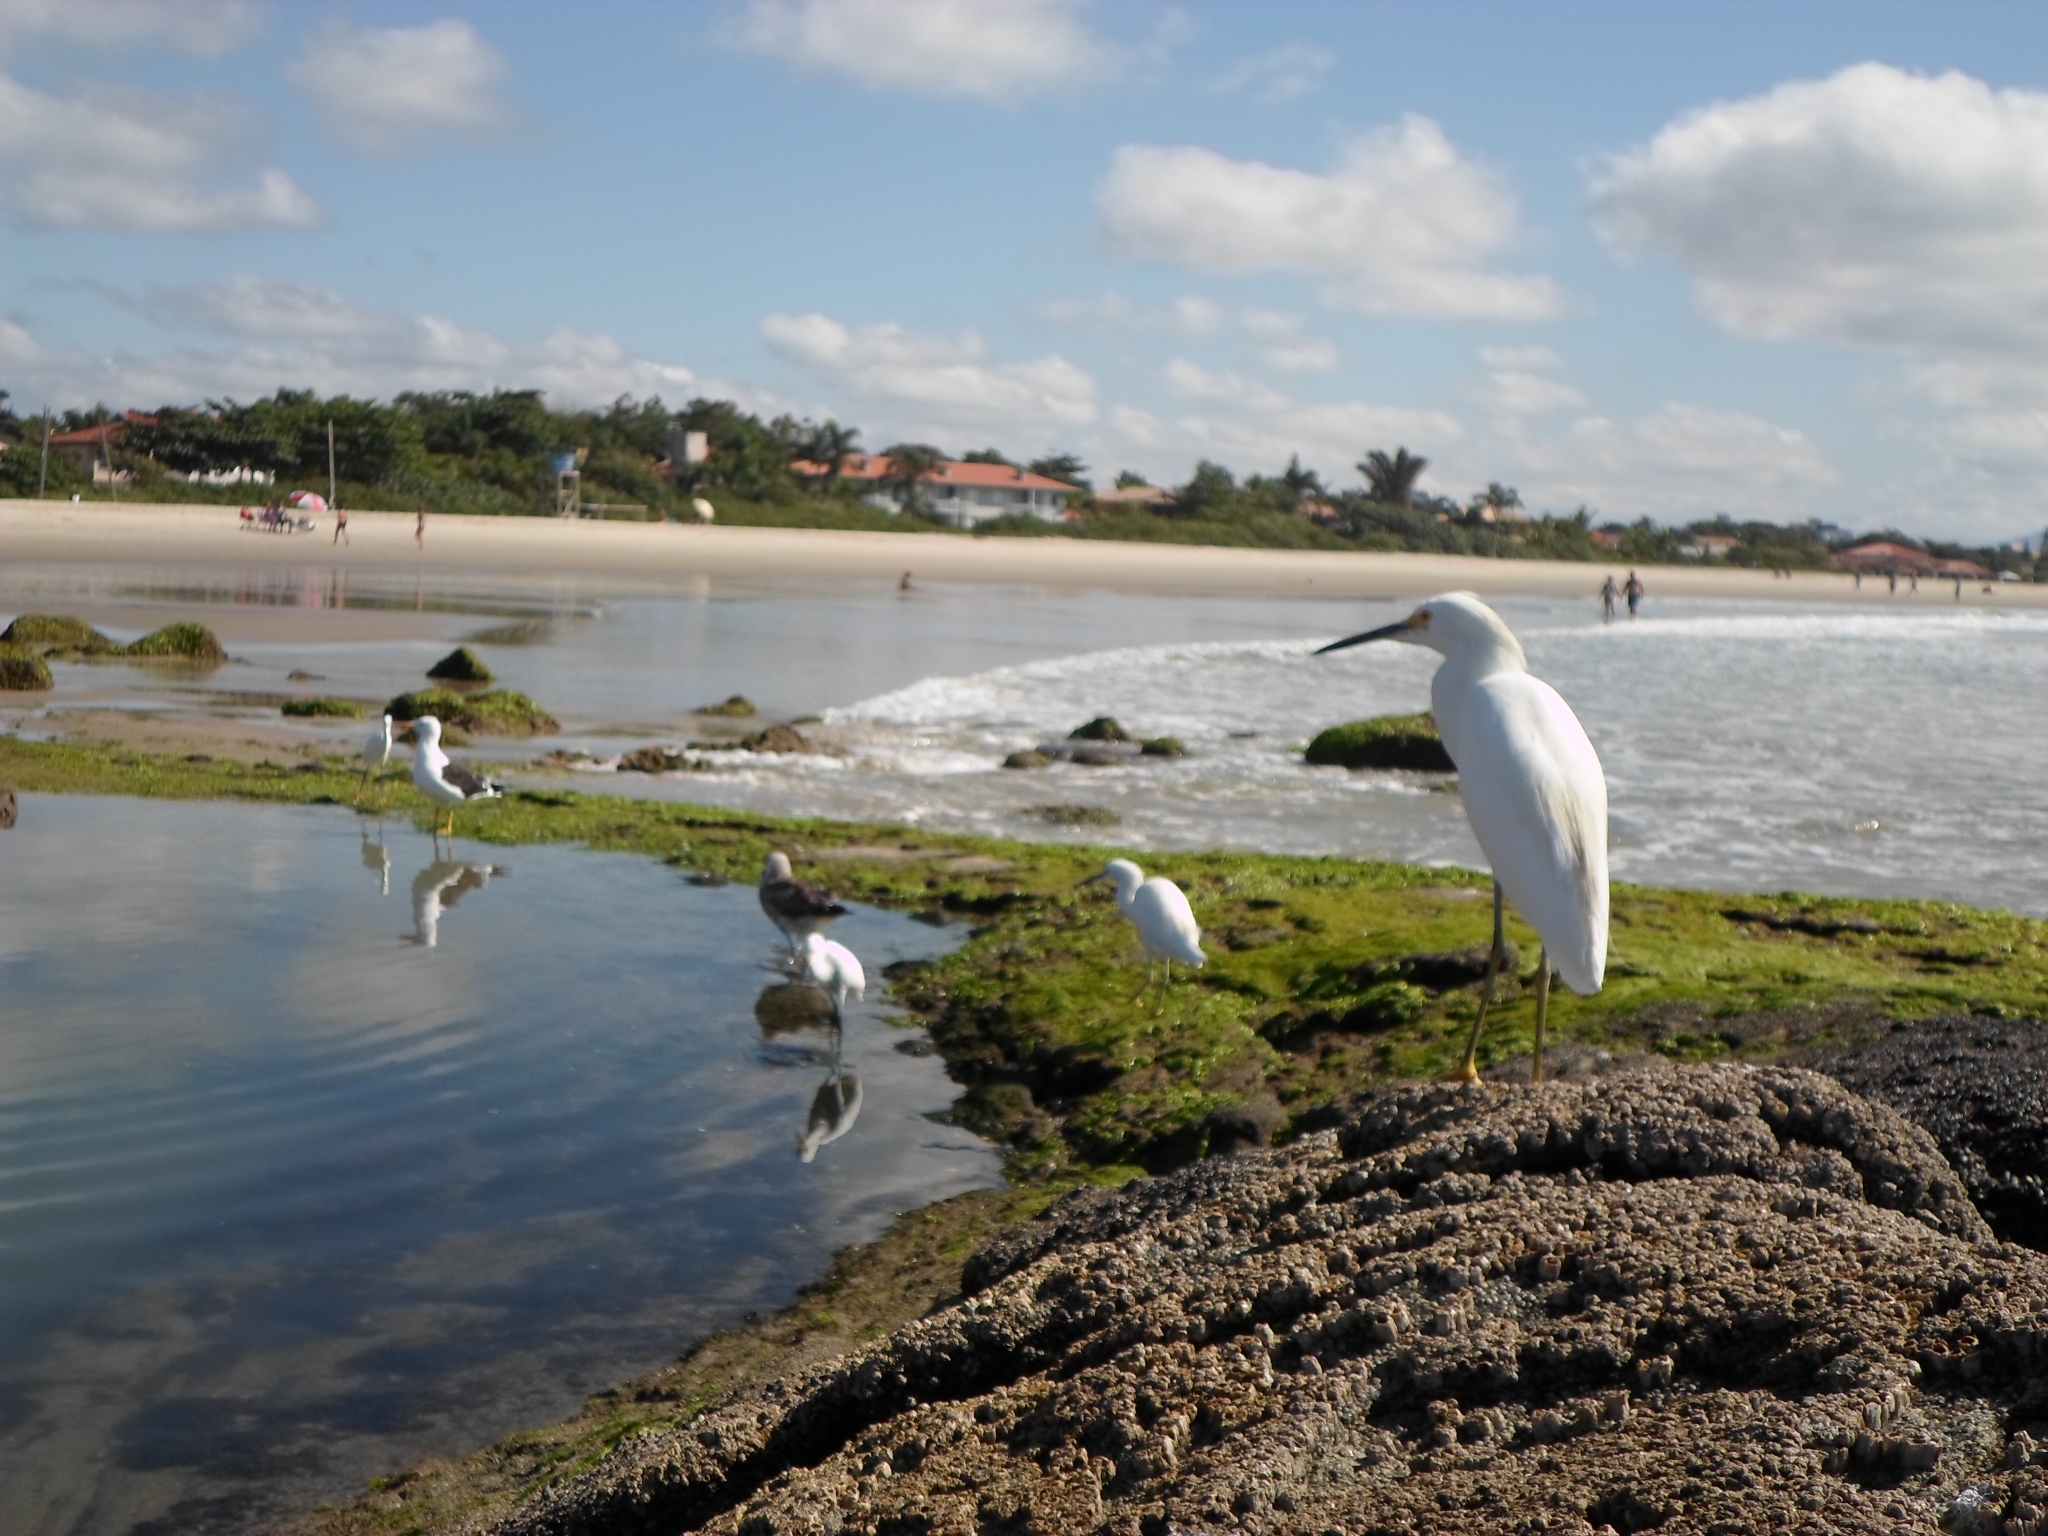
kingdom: Animalia
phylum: Chordata
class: Aves
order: Pelecaniformes
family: Ardeidae
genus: Egretta
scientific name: Egretta thula
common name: Snowy egret
